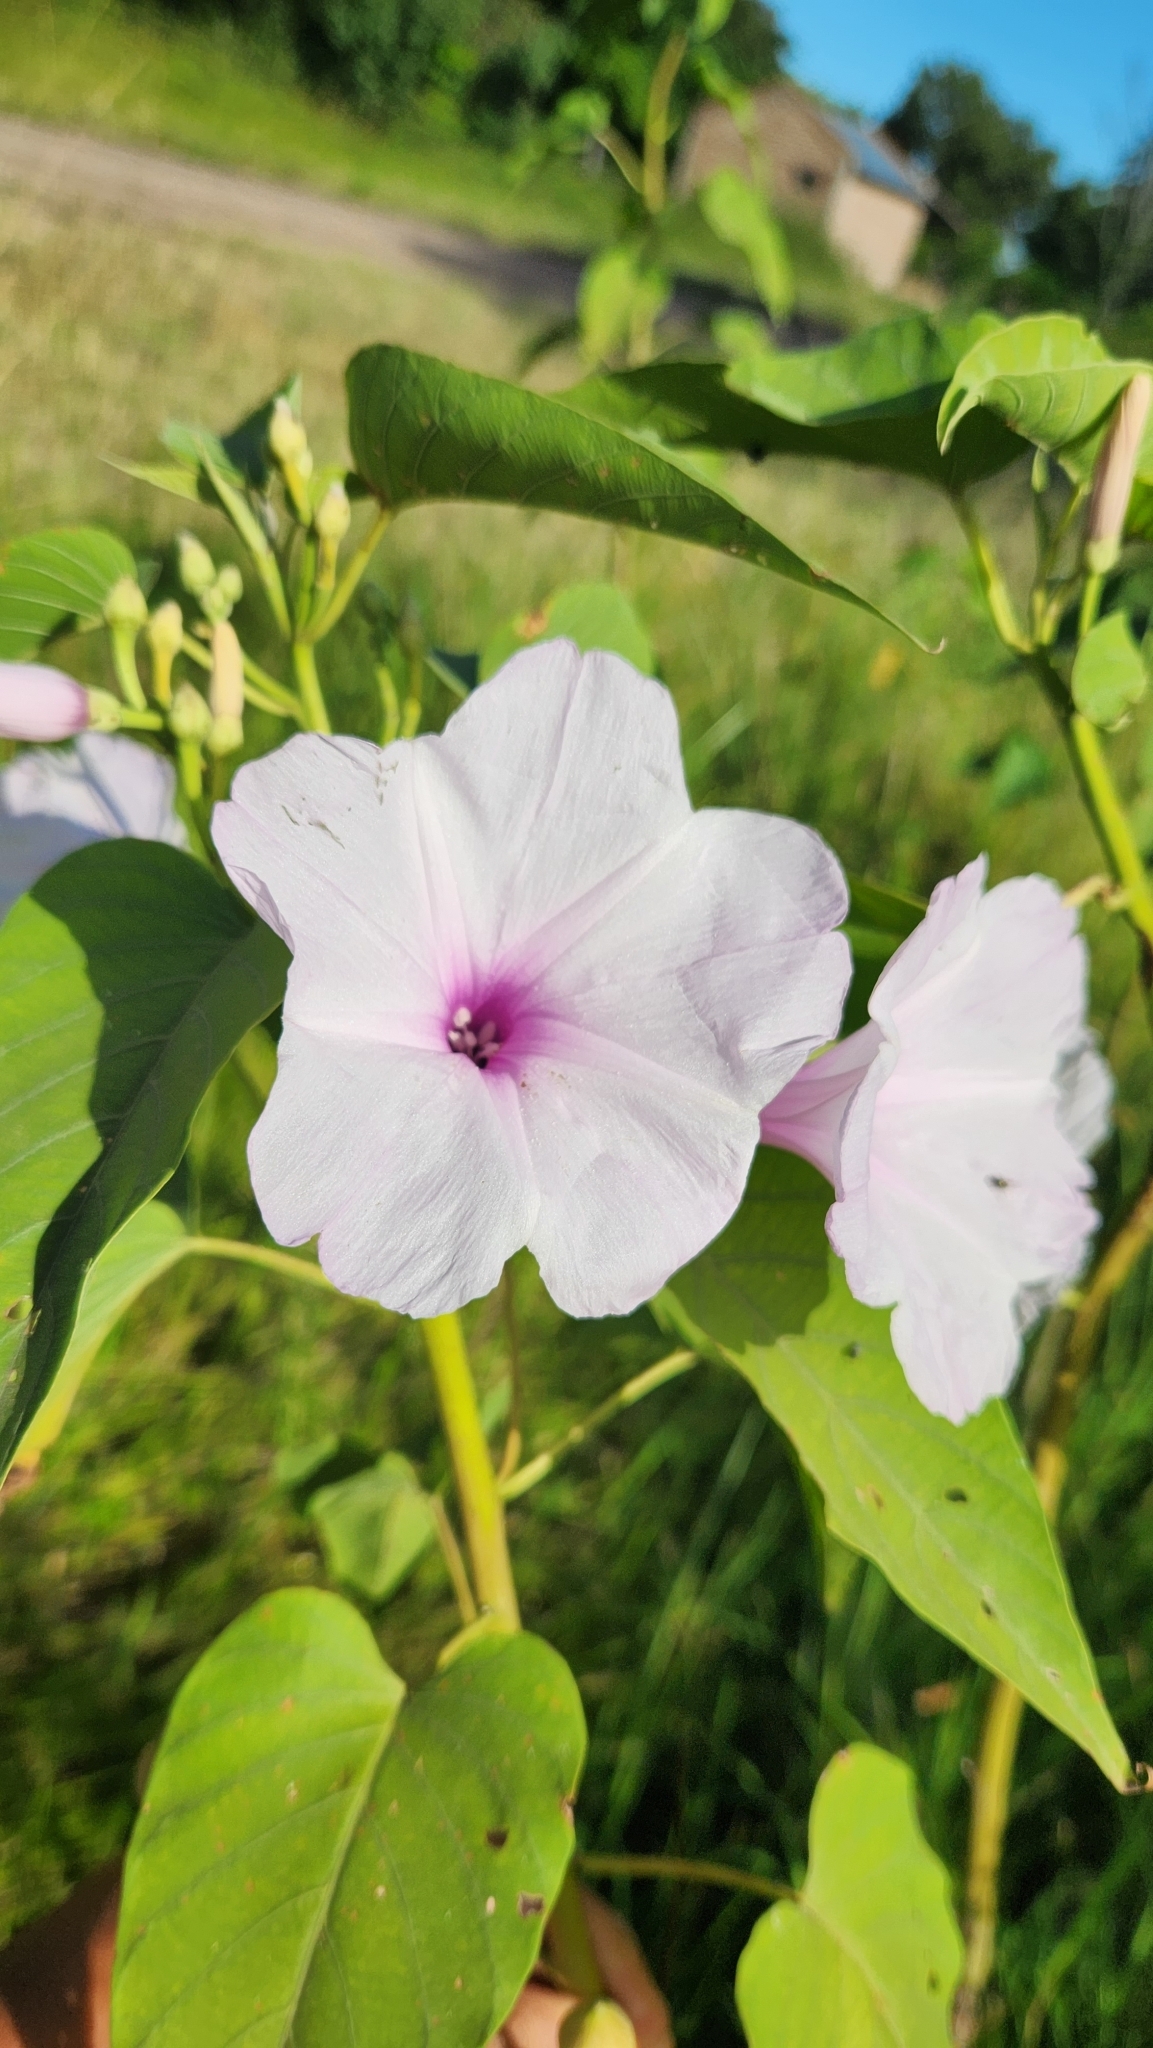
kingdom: Plantae
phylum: Tracheophyta
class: Magnoliopsida
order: Solanales
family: Convolvulaceae
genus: Ipomoea
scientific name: Ipomoea carnea
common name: Morning-glory
